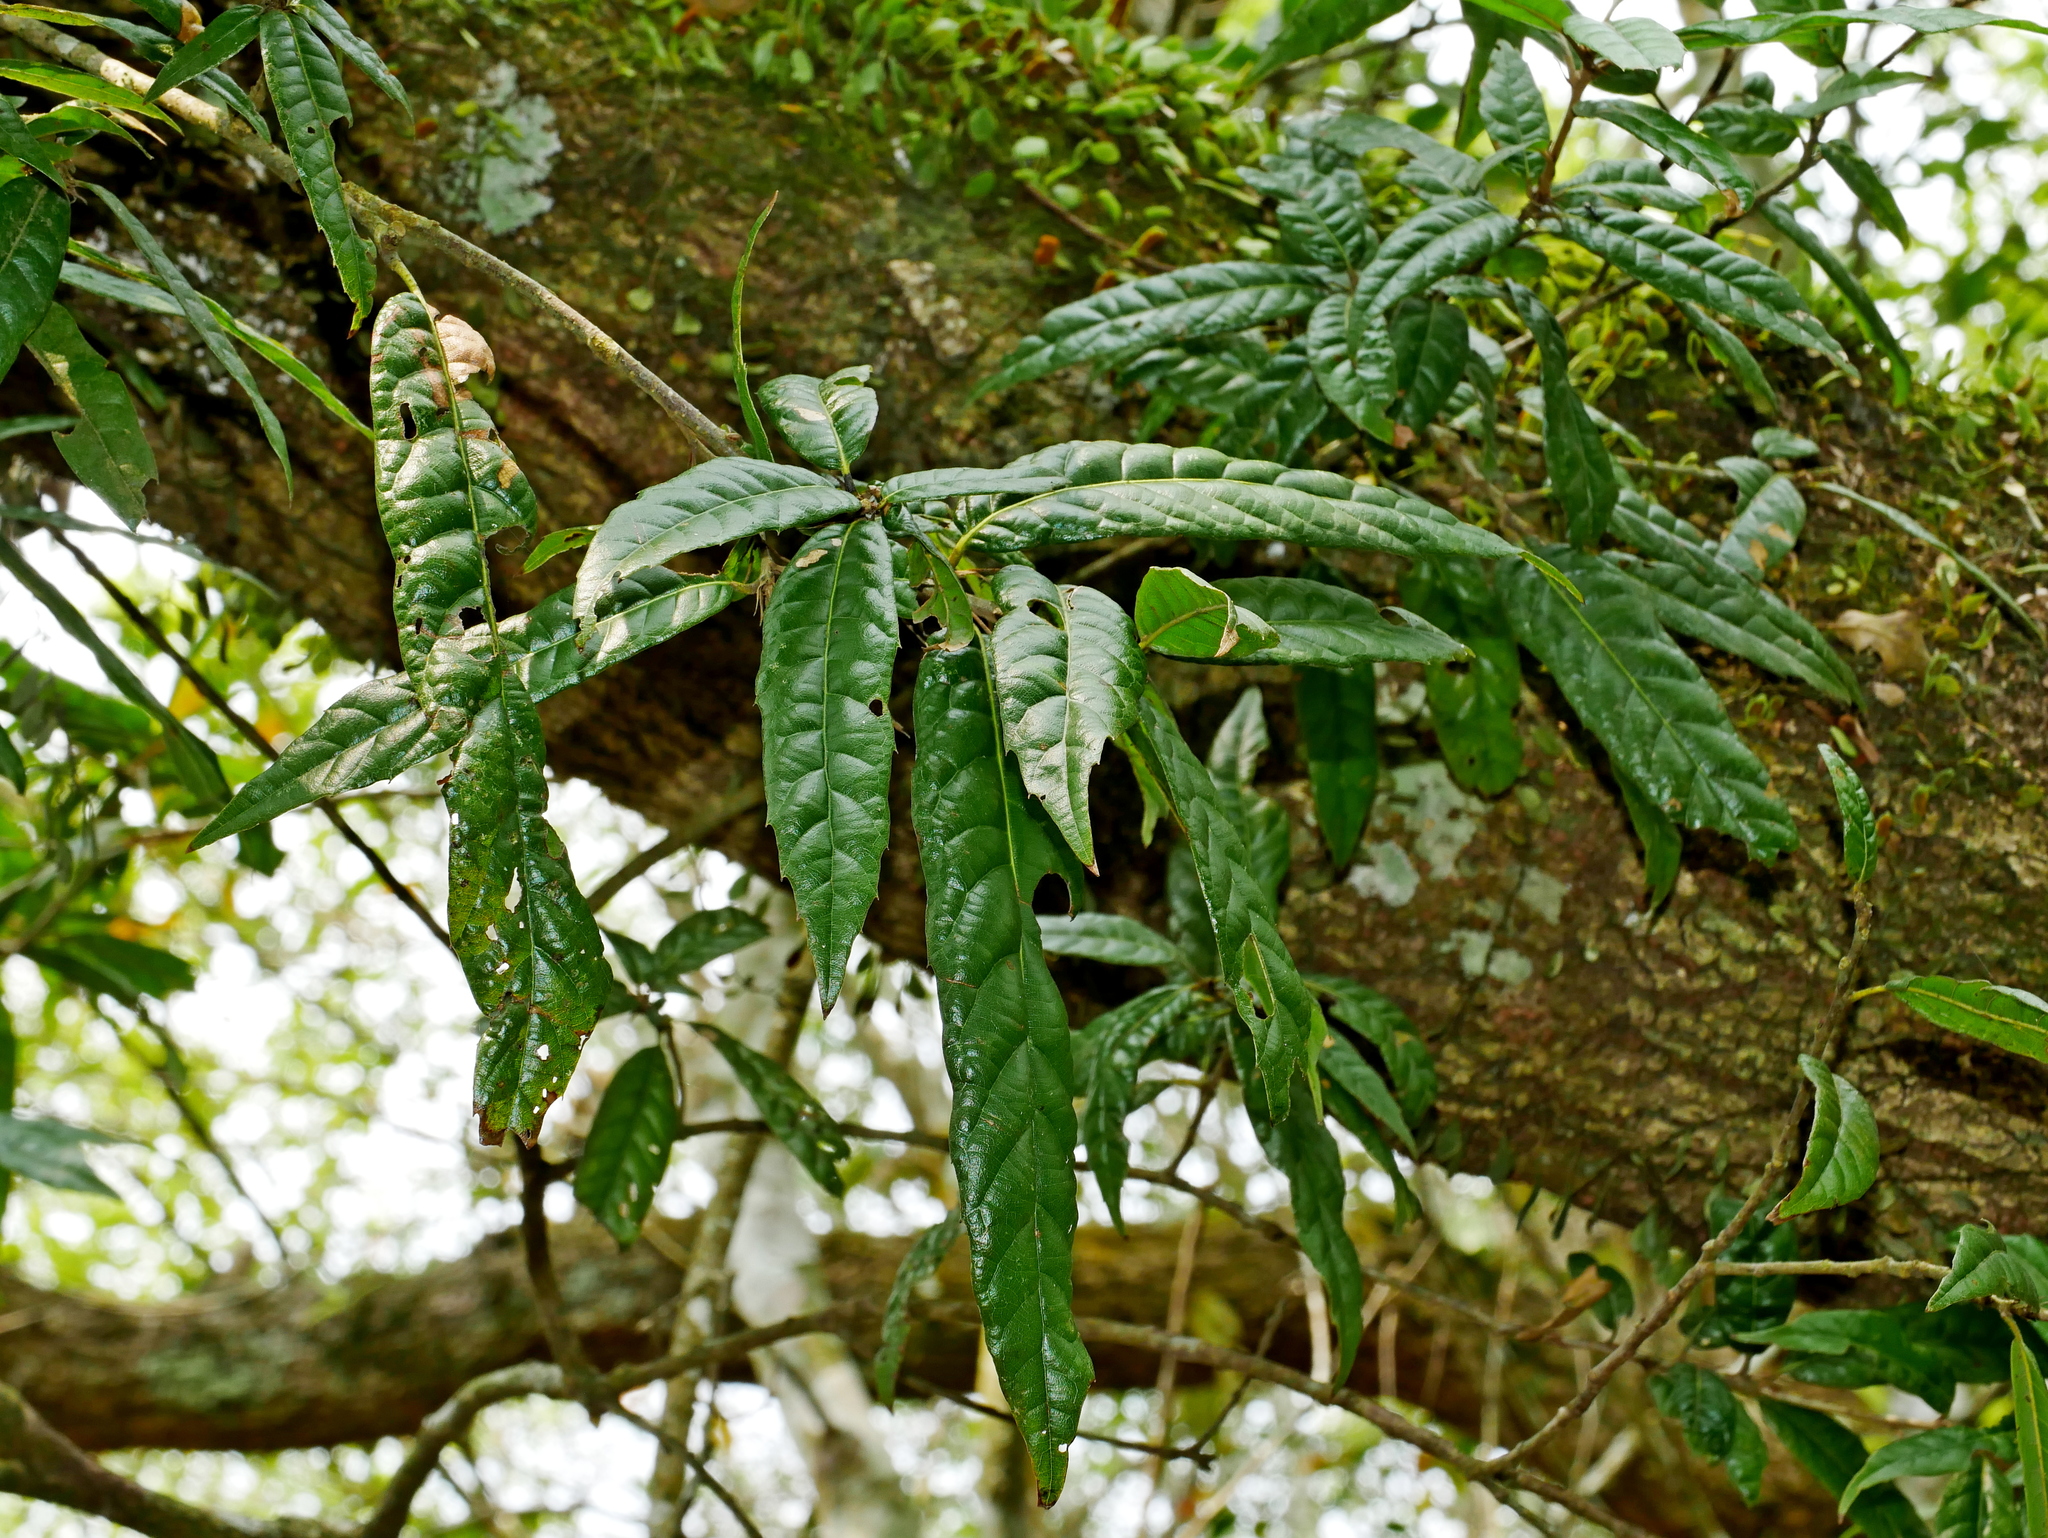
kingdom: Plantae
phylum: Tracheophyta
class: Magnoliopsida
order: Fagales
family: Fagaceae
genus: Quercus
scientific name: Quercus tatakaensis
